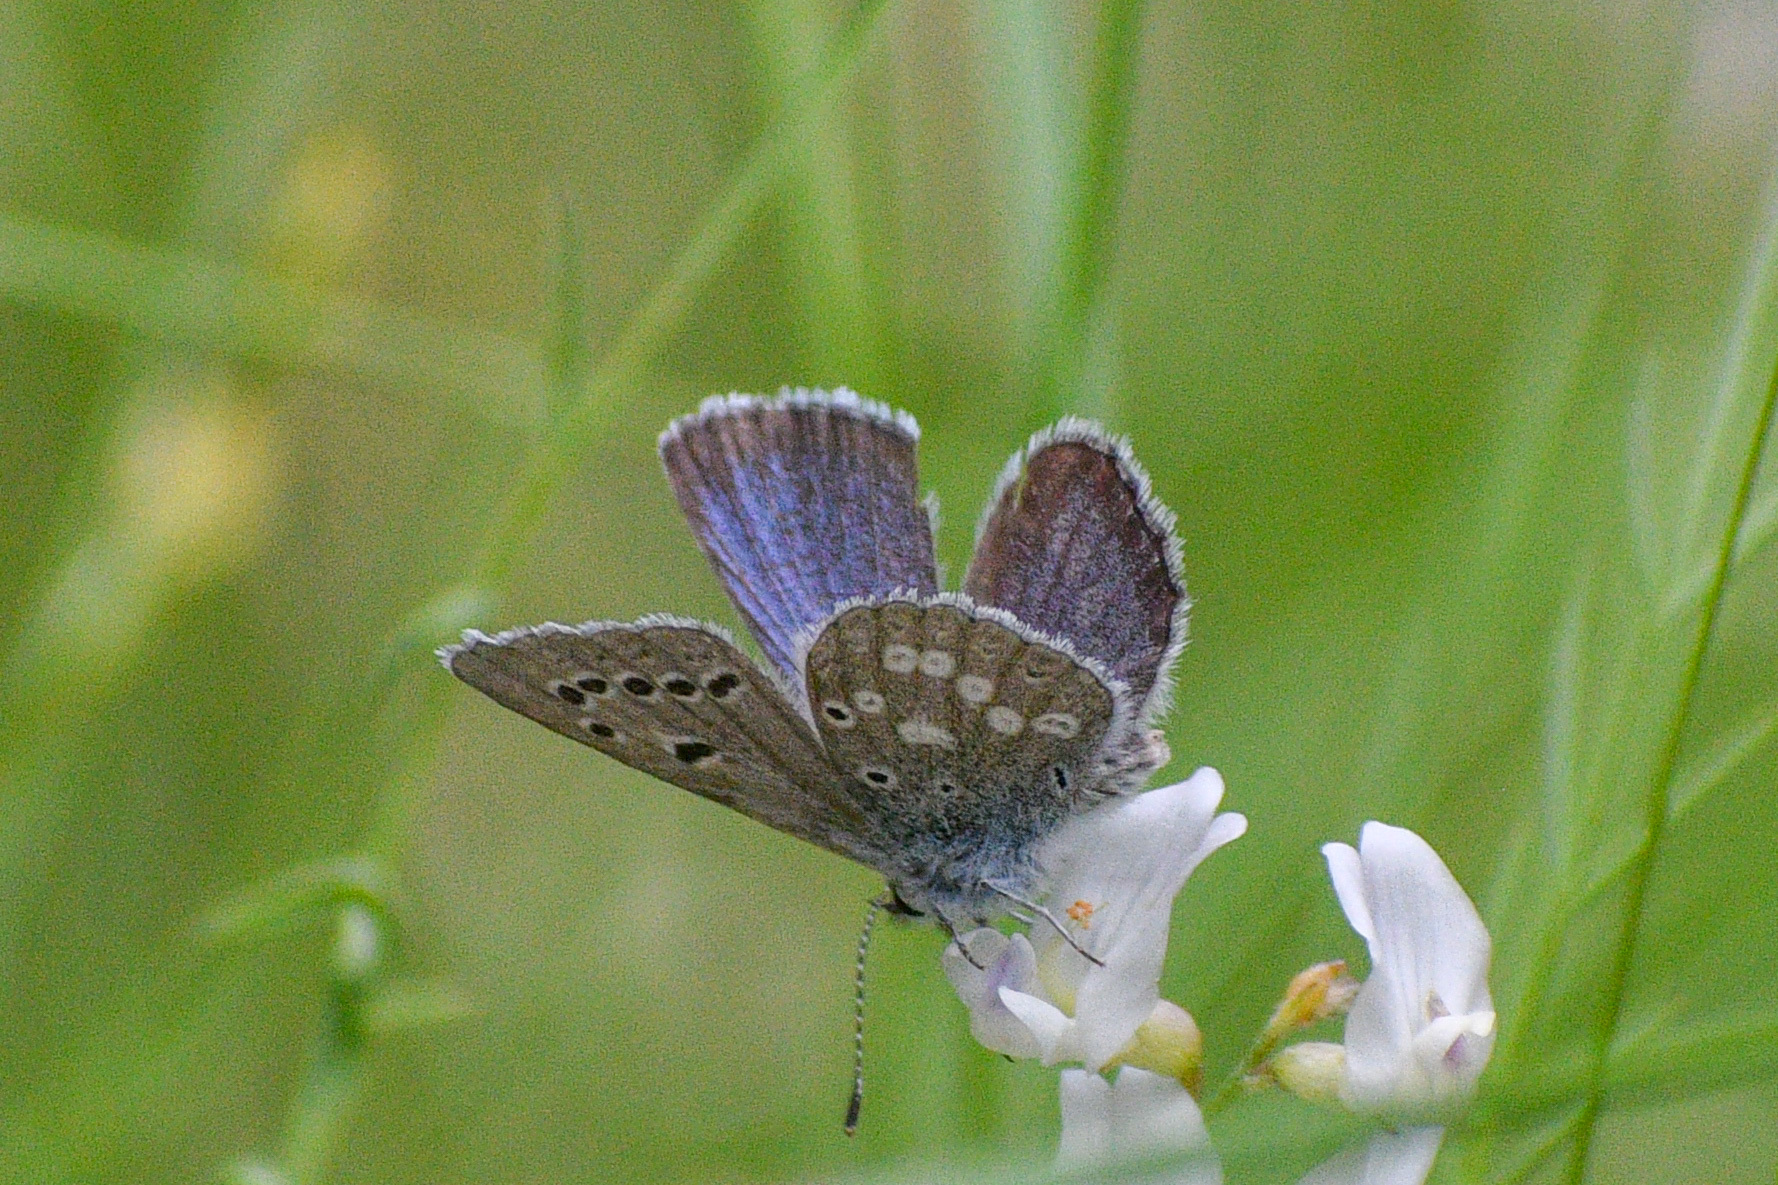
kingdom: Animalia
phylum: Arthropoda
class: Insecta
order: Lepidoptera
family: Lycaenidae
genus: Icaricia
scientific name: Icaricia icarioides
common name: Boisduval's blue
